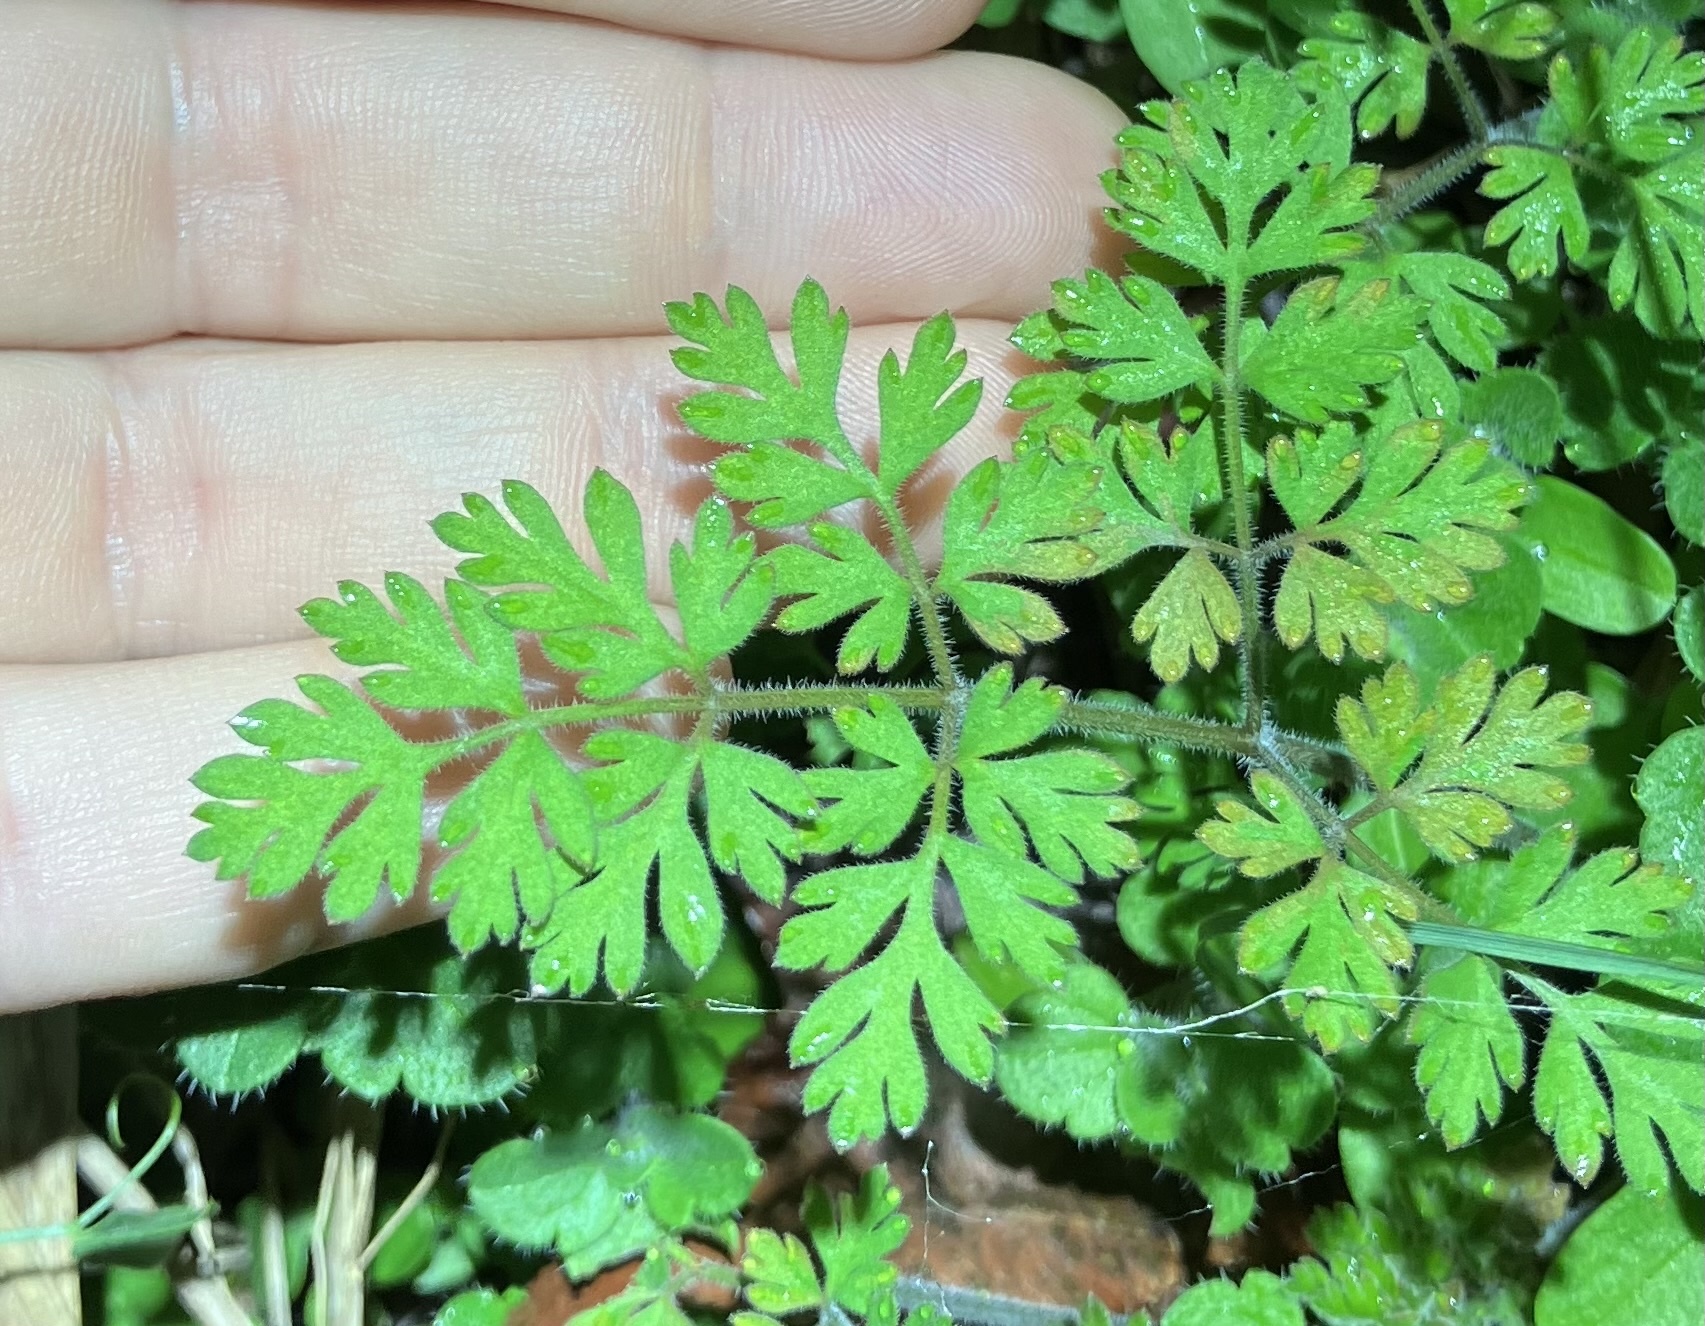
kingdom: Plantae
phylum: Tracheophyta
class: Magnoliopsida
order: Apiales
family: Apiaceae
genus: Chaerophyllum
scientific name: Chaerophyllum tainturieri
